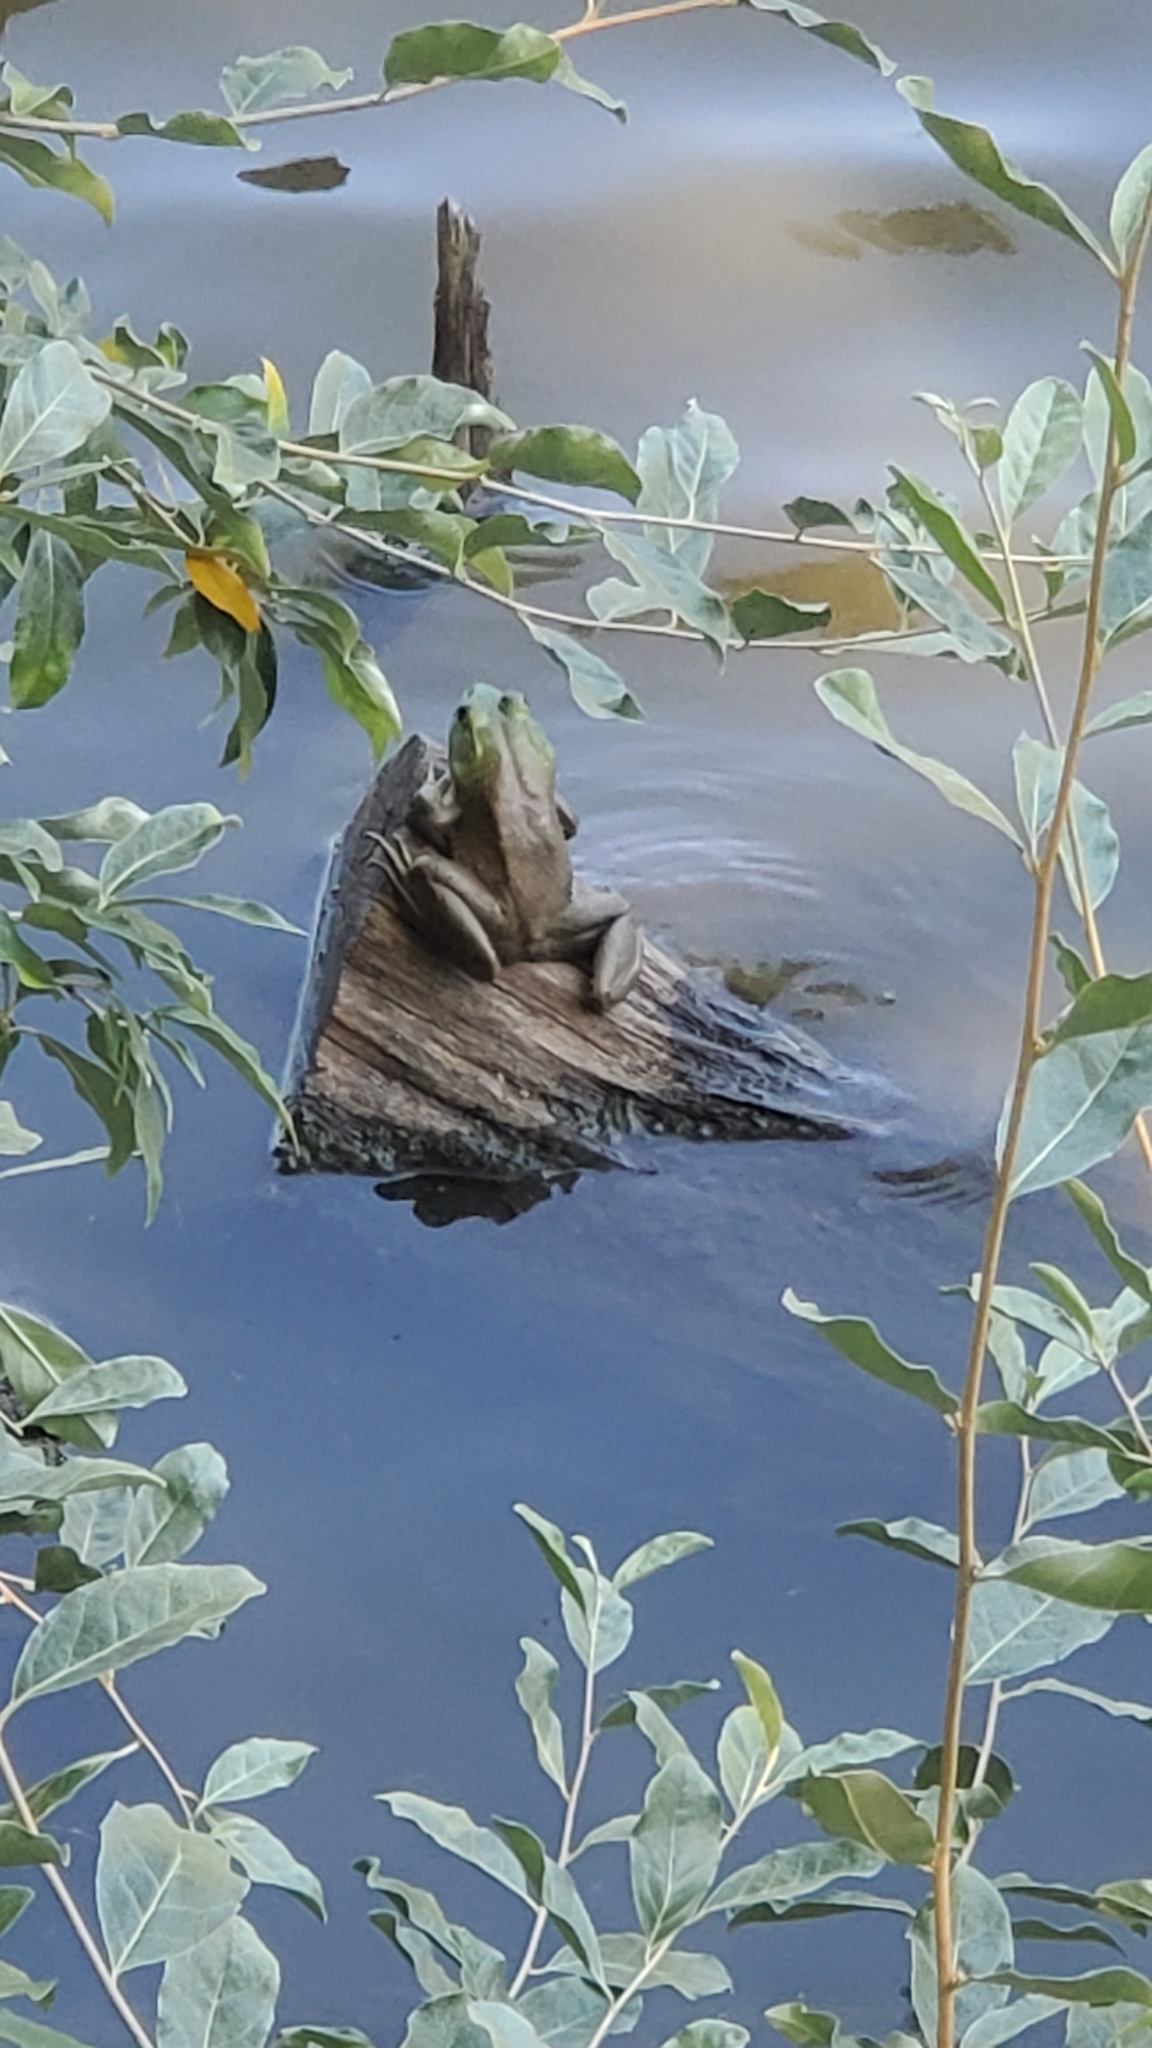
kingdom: Animalia
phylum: Chordata
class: Amphibia
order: Anura
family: Ranidae
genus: Lithobates
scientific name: Lithobates catesbeianus
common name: American bullfrog
